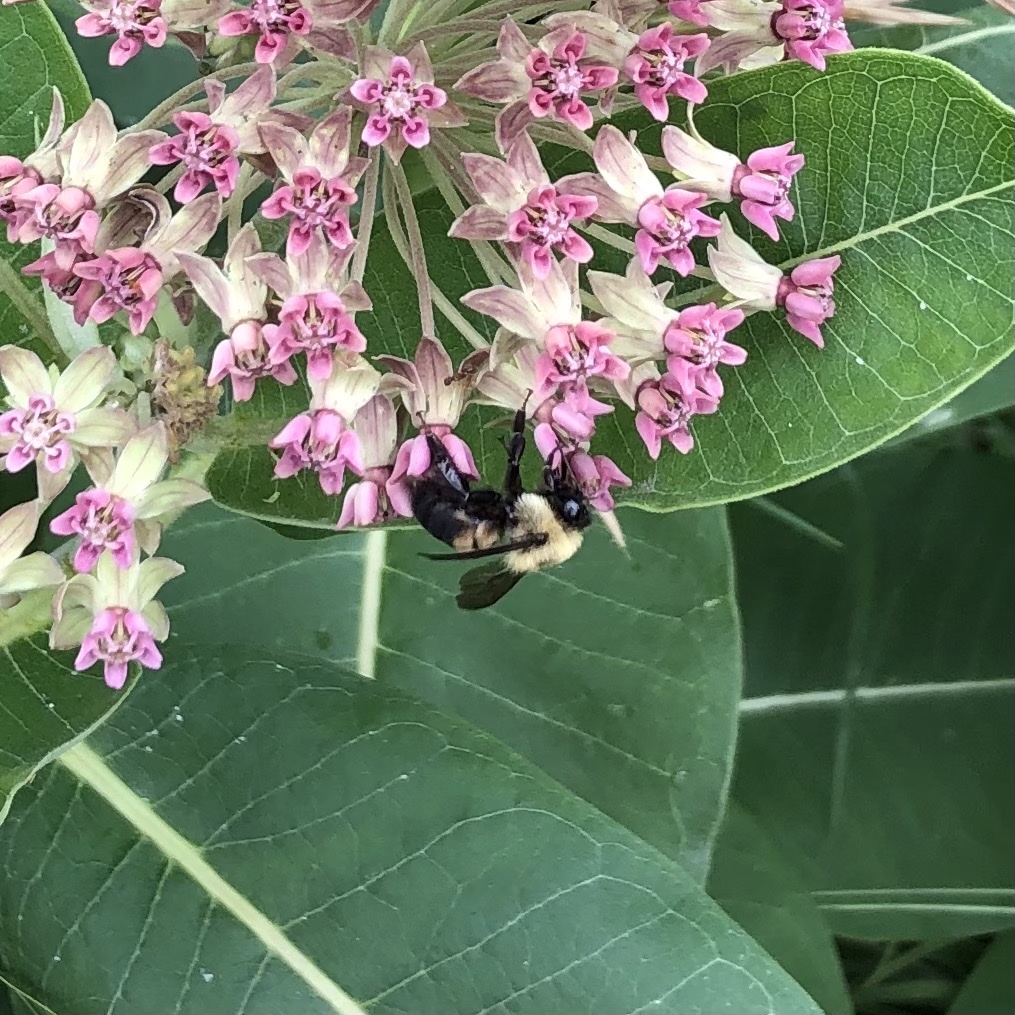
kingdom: Animalia
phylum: Arthropoda
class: Insecta
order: Hymenoptera
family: Apidae
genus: Bombus
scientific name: Bombus griseocollis
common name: Brown-belted bumble bee
